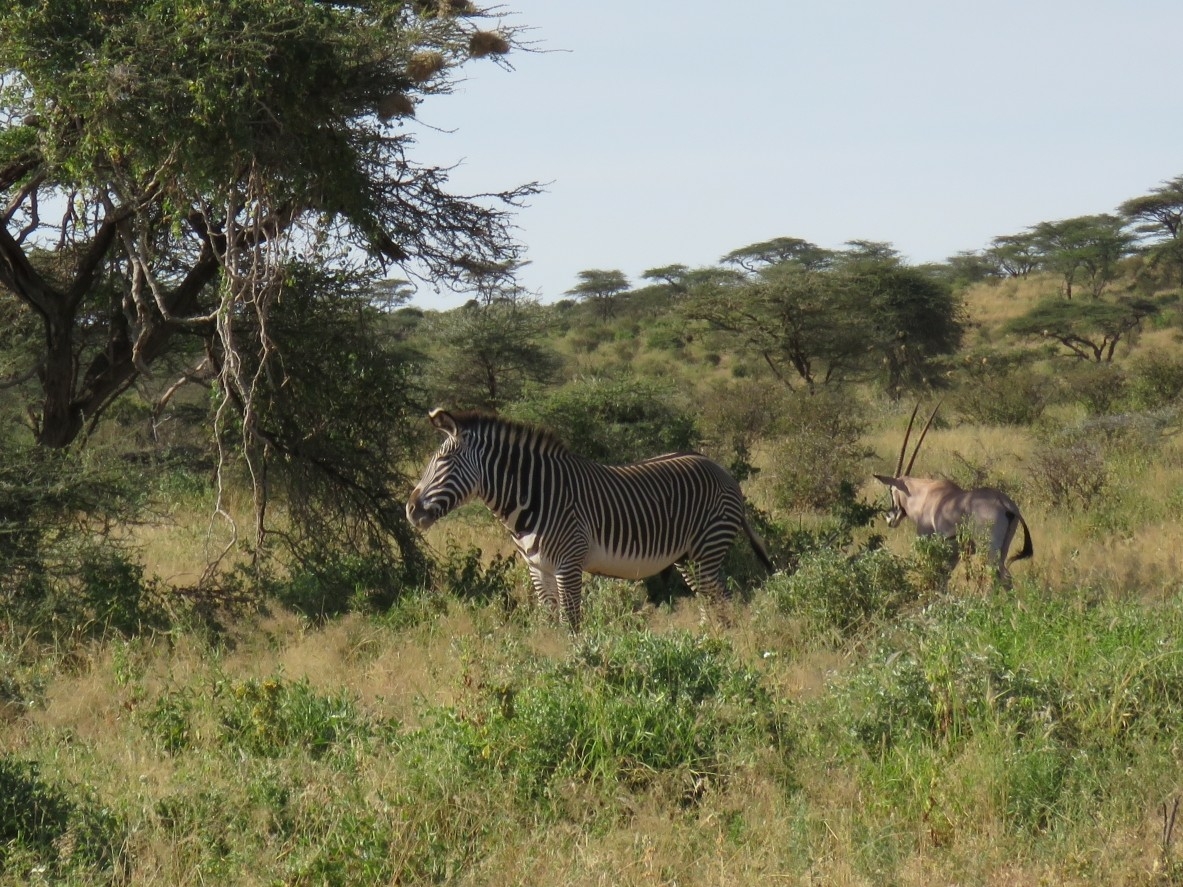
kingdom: Animalia
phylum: Chordata
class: Mammalia
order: Perissodactyla
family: Equidae
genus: Equus
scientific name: Equus grevyi
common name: Grevy's zebra
